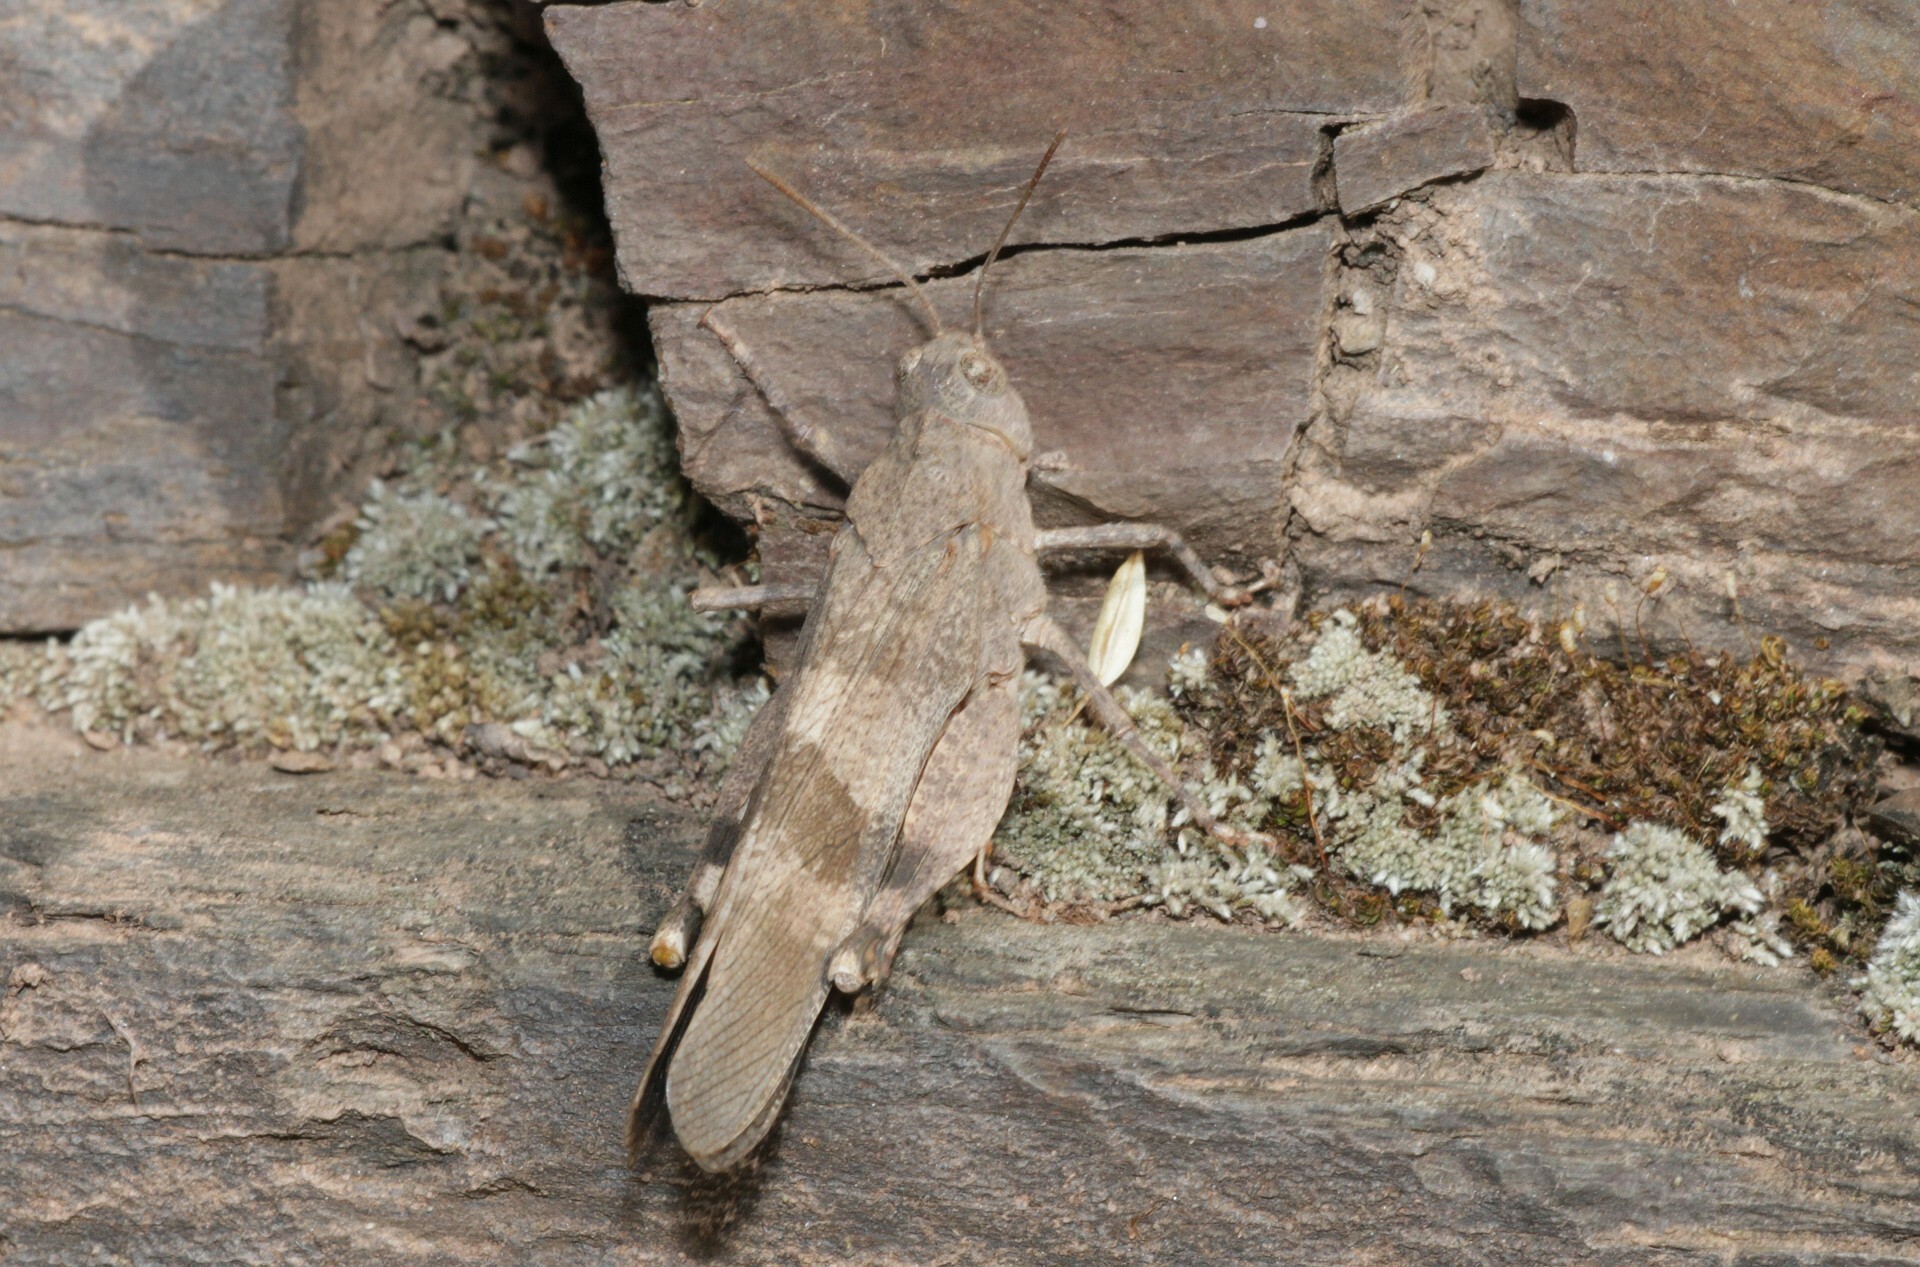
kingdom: Animalia
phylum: Arthropoda
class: Insecta
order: Orthoptera
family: Acrididae
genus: Oedipoda
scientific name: Oedipoda germanica
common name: Red band-winged grasshopper
